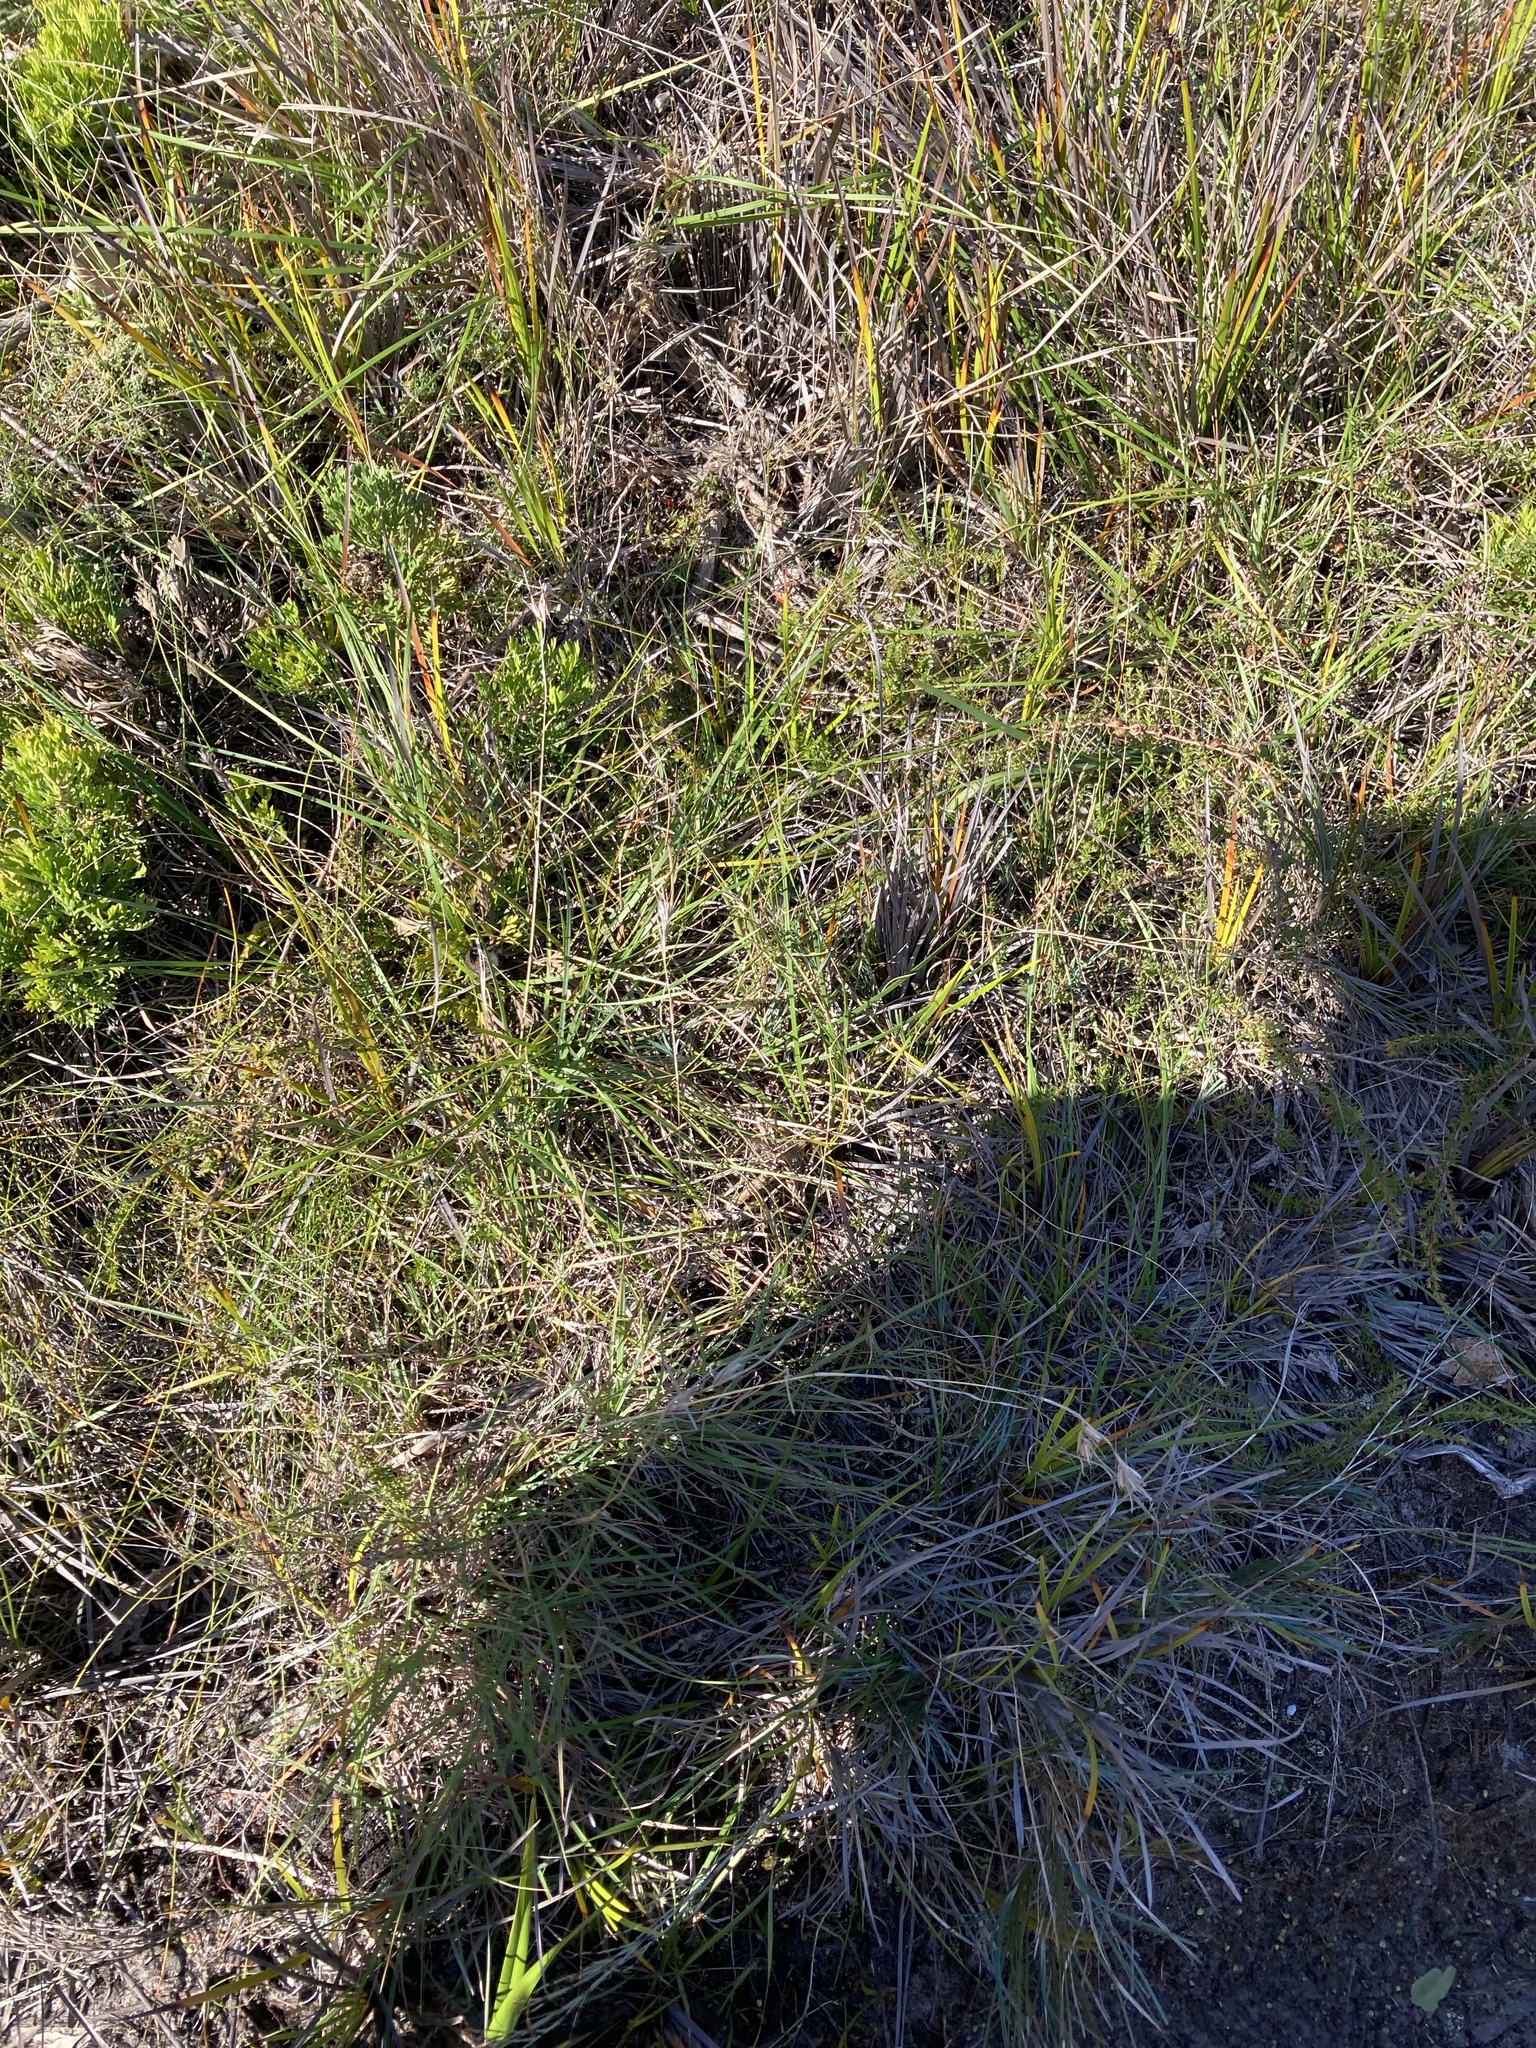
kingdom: Plantae
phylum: Tracheophyta
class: Liliopsida
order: Poales
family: Poaceae
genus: Themeda
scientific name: Themeda triandra
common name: Kangaroo grass
